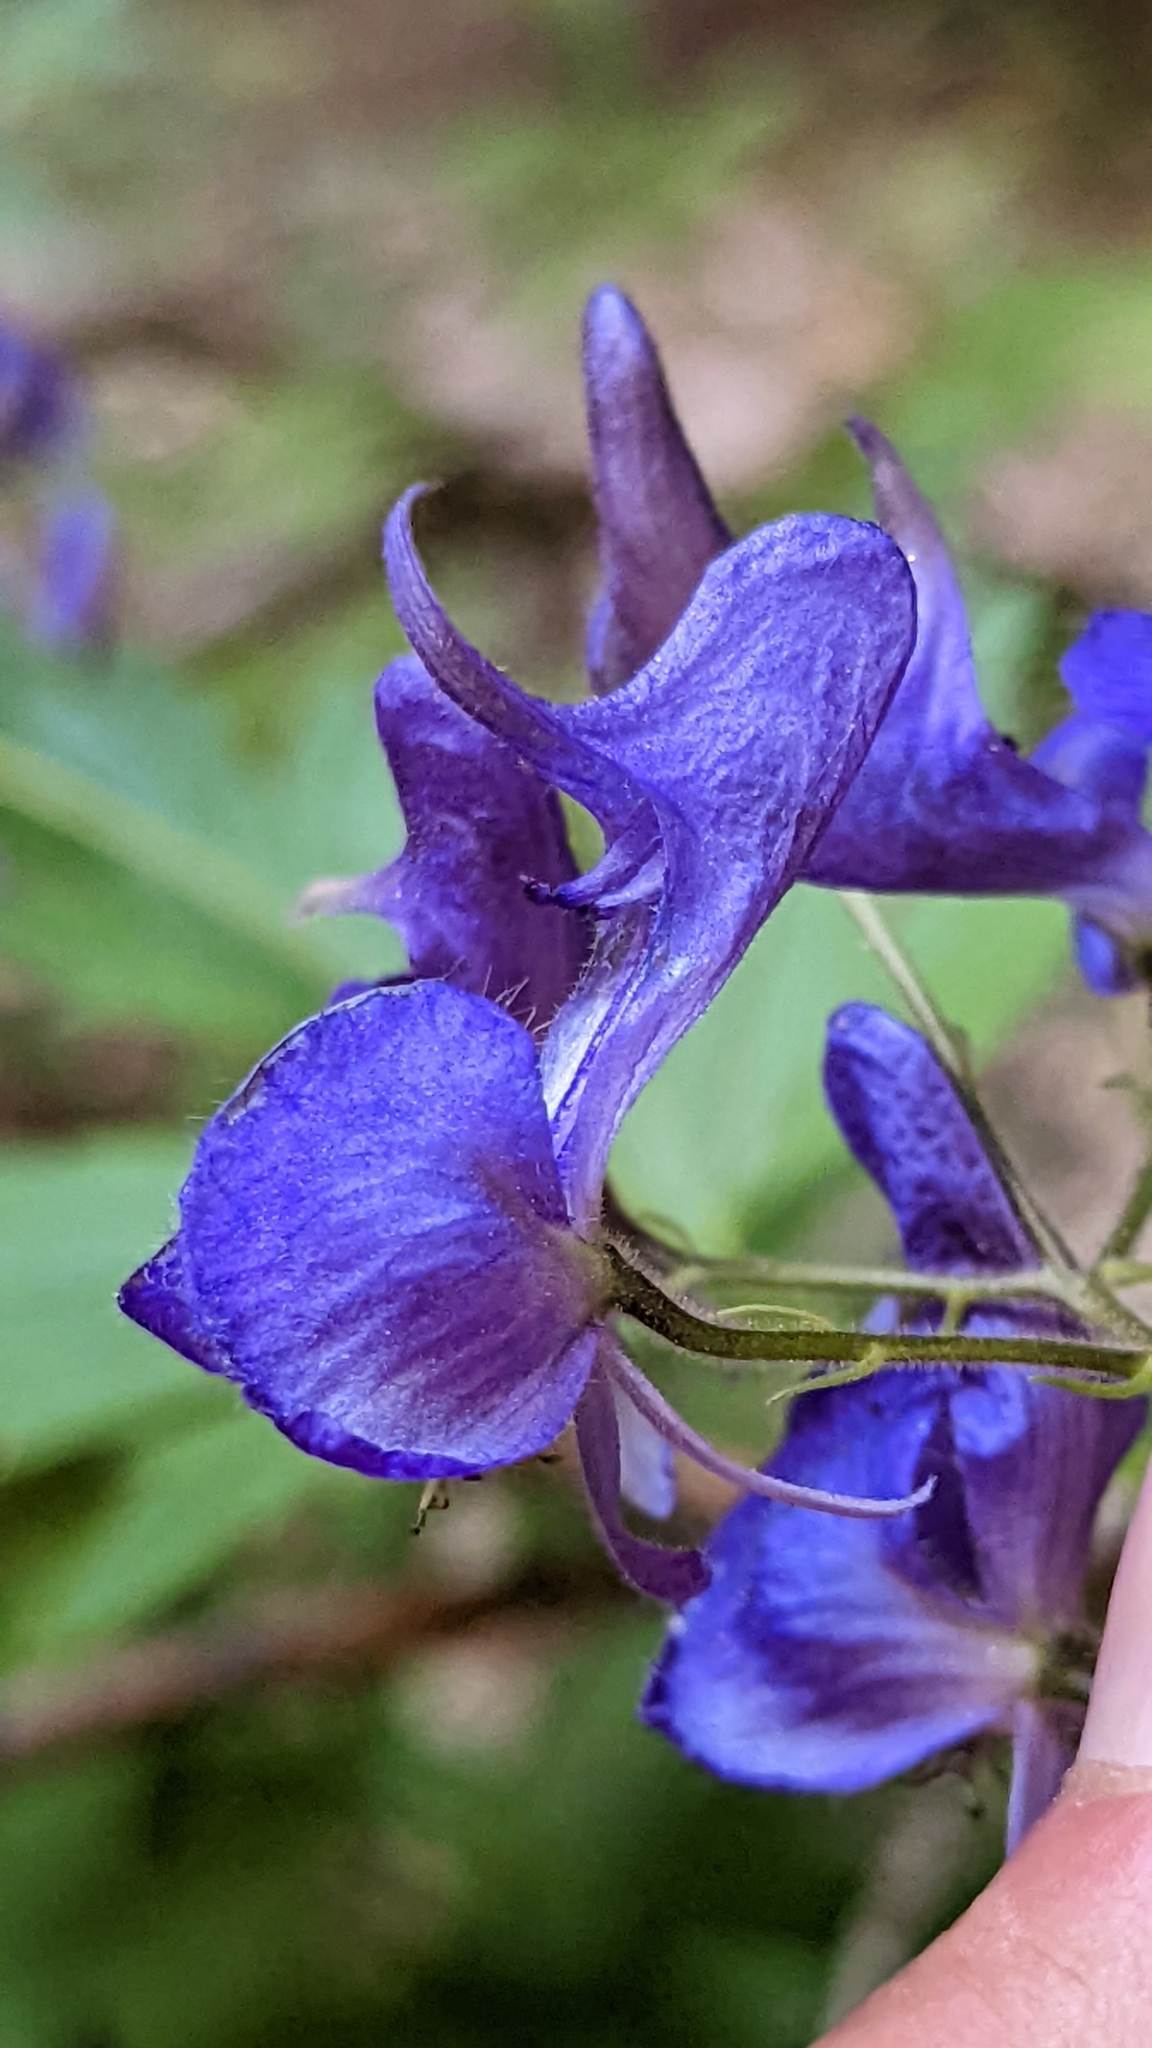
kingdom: Plantae
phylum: Tracheophyta
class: Magnoliopsida
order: Ranunculales
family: Ranunculaceae
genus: Aconitum
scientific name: Aconitum columbianum
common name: Columbia aconite
